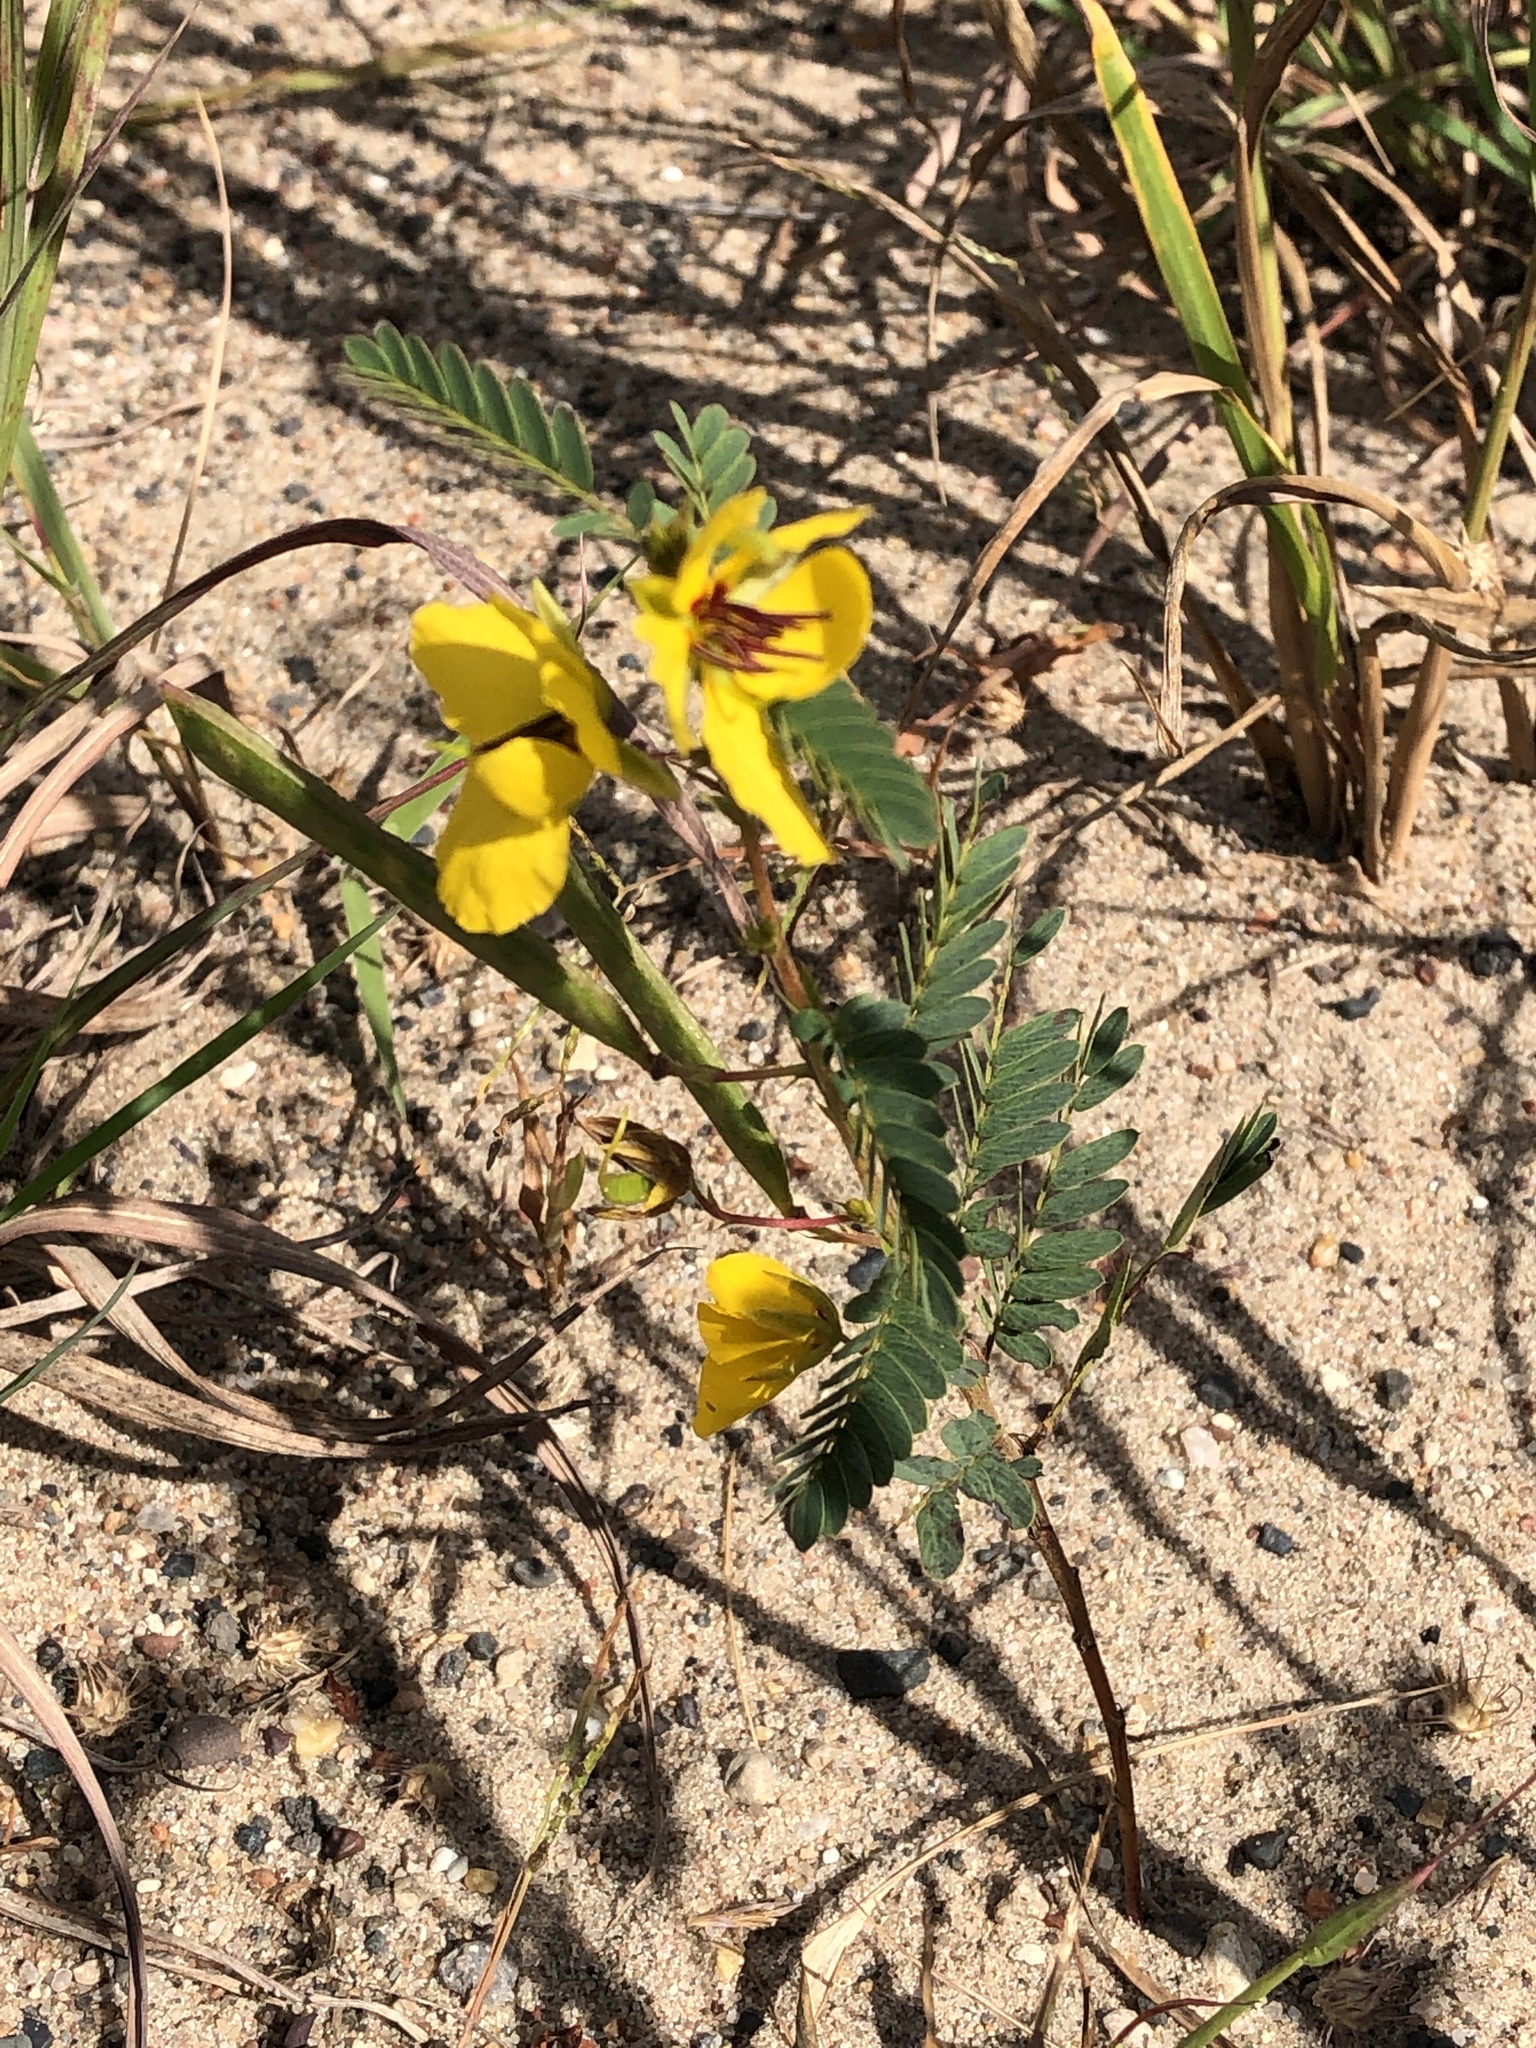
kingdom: Plantae
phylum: Tracheophyta
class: Magnoliopsida
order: Fabales
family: Fabaceae
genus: Chamaecrista
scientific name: Chamaecrista fasciculata
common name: Golden cassia
